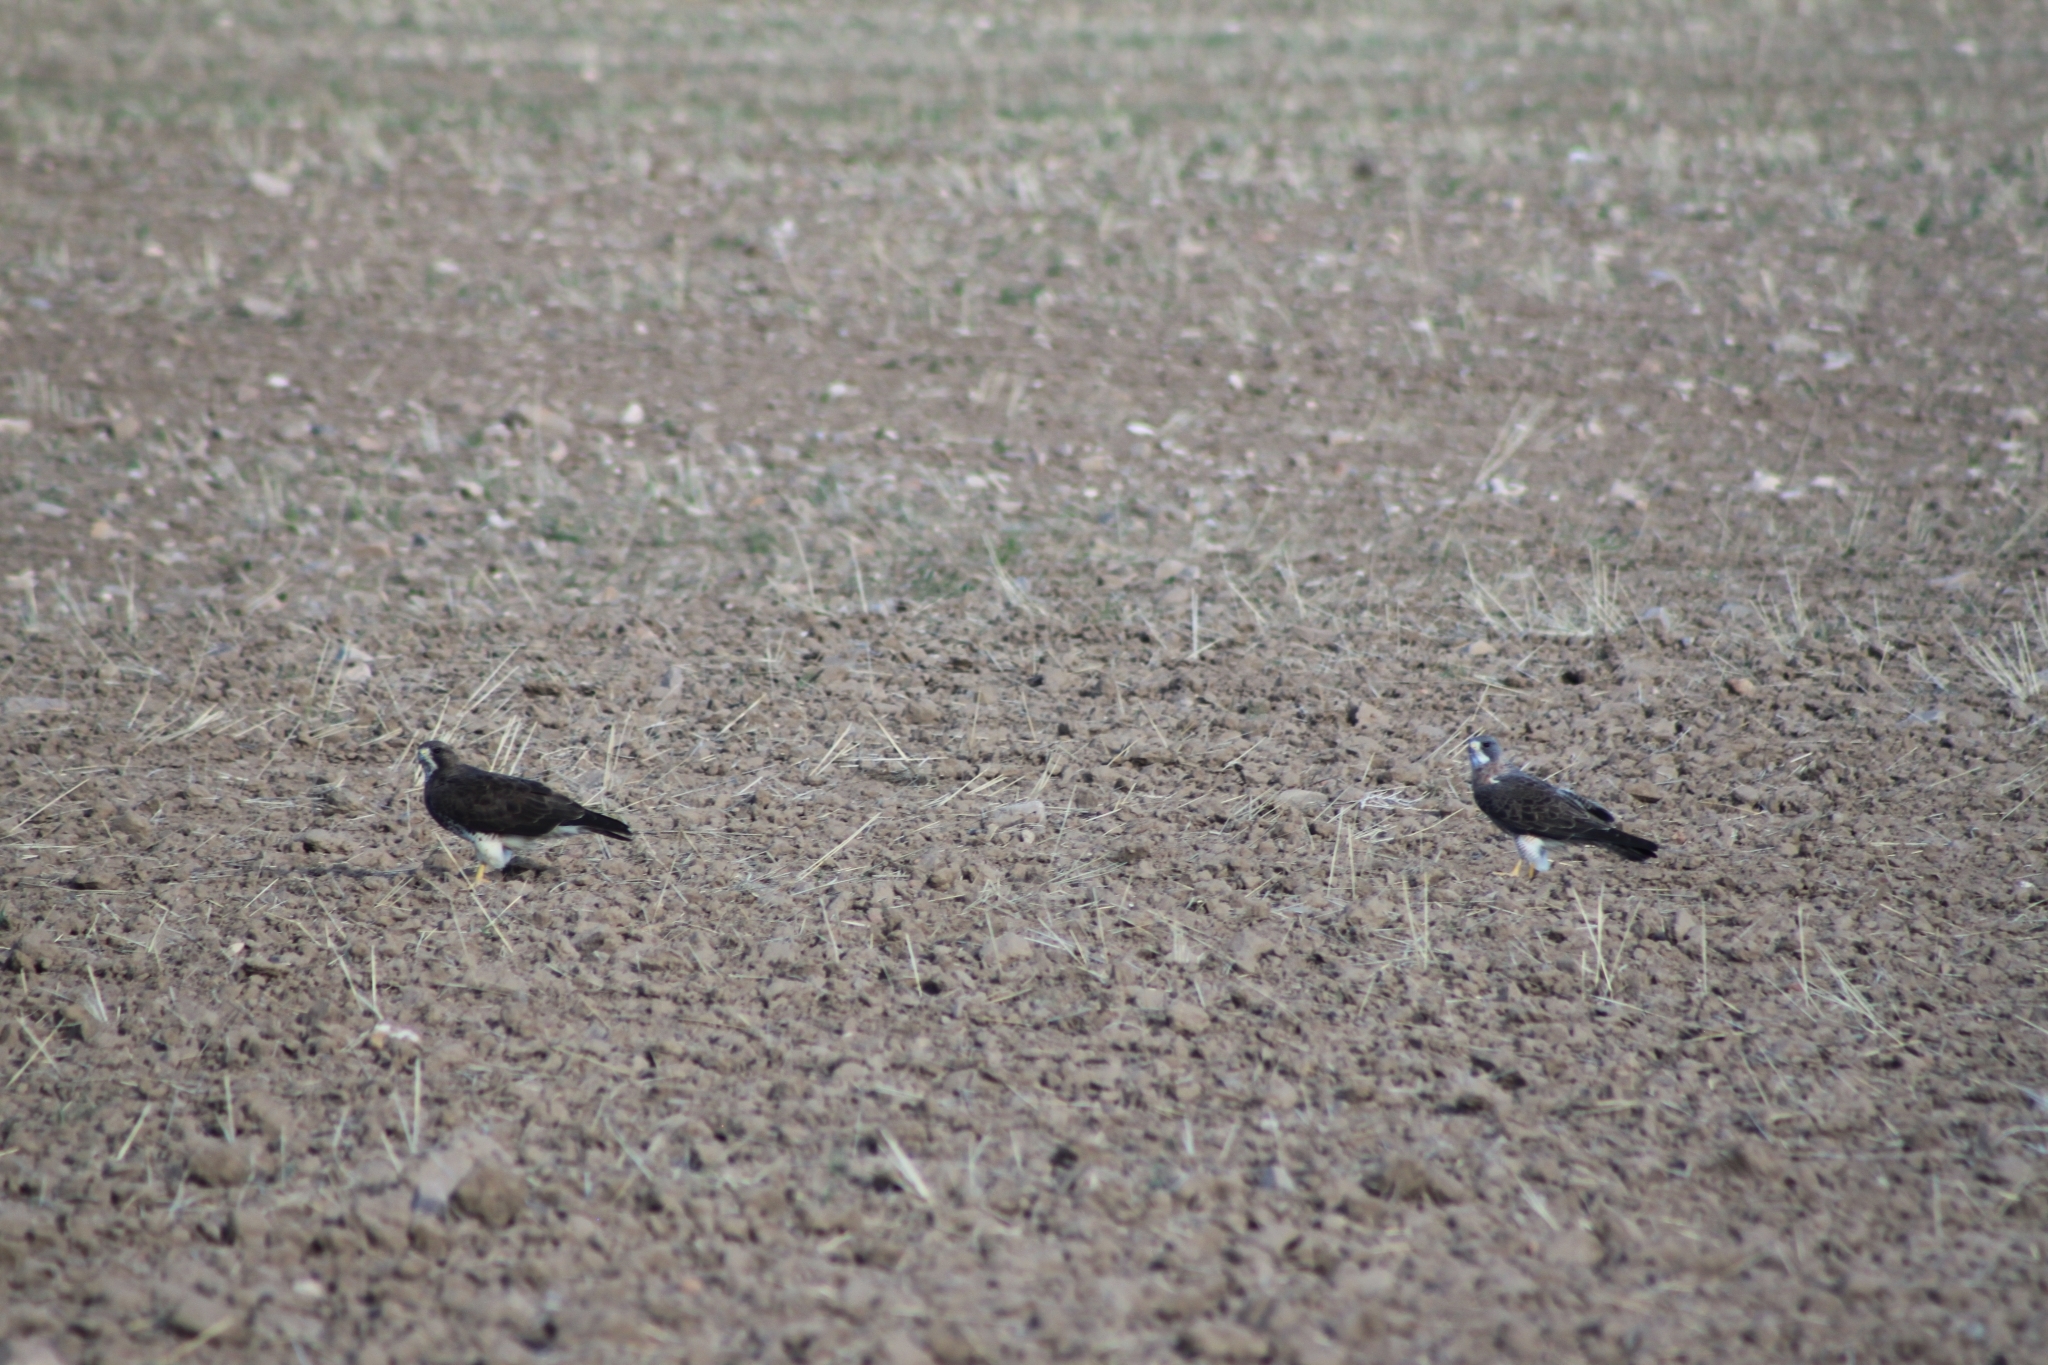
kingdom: Animalia
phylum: Chordata
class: Aves
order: Accipitriformes
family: Accipitridae
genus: Buteo
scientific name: Buteo swainsoni
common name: Swainson's hawk
